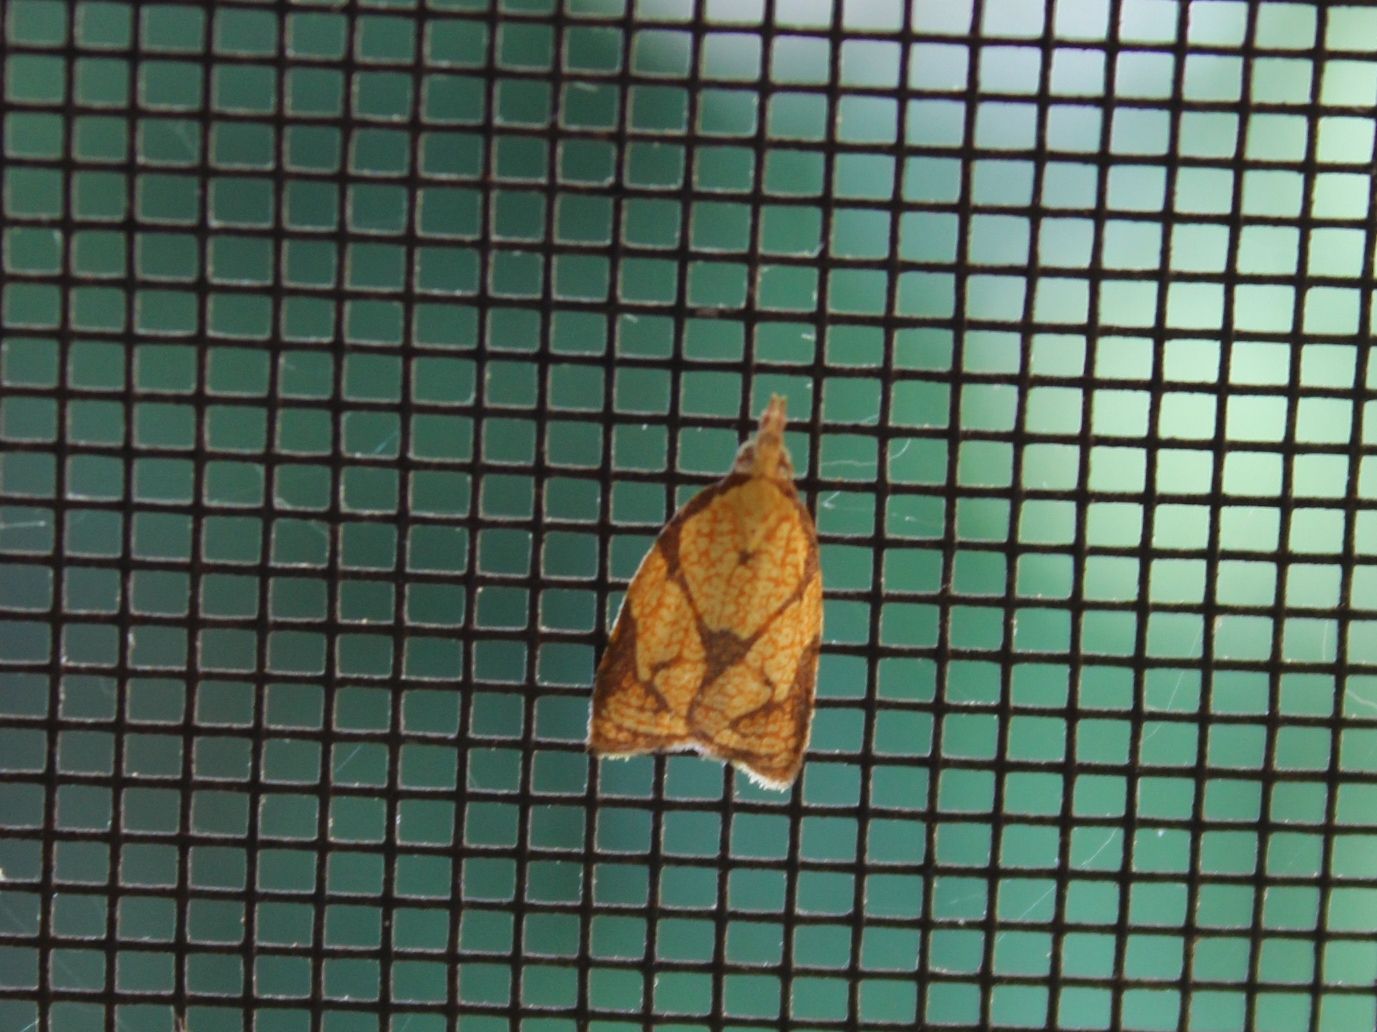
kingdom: Animalia
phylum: Arthropoda
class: Insecta
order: Lepidoptera
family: Tortricidae
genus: Cenopis
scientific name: Cenopis reticulatana
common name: Reticulated fruitworm moth
